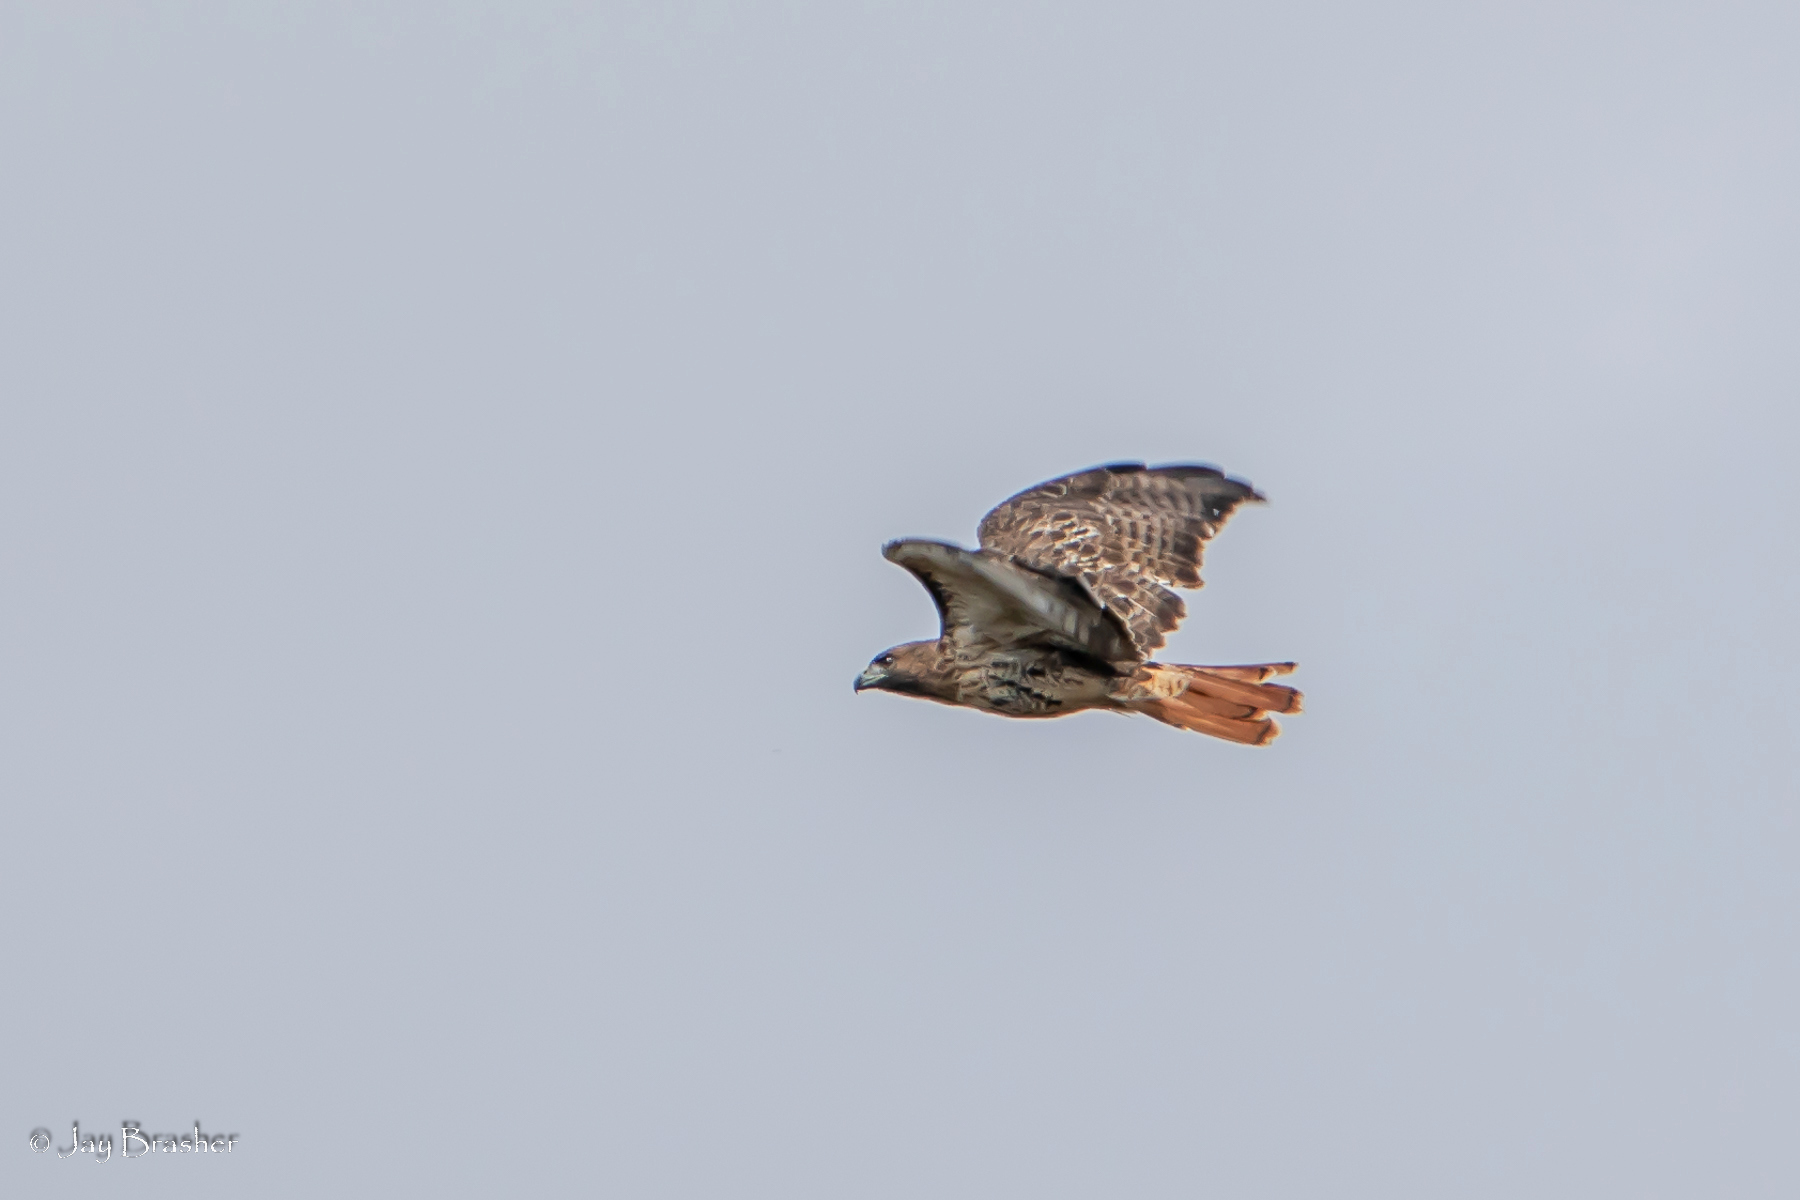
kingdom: Animalia
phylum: Chordata
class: Aves
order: Accipitriformes
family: Accipitridae
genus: Buteo
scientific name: Buteo jamaicensis
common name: Red-tailed hawk
